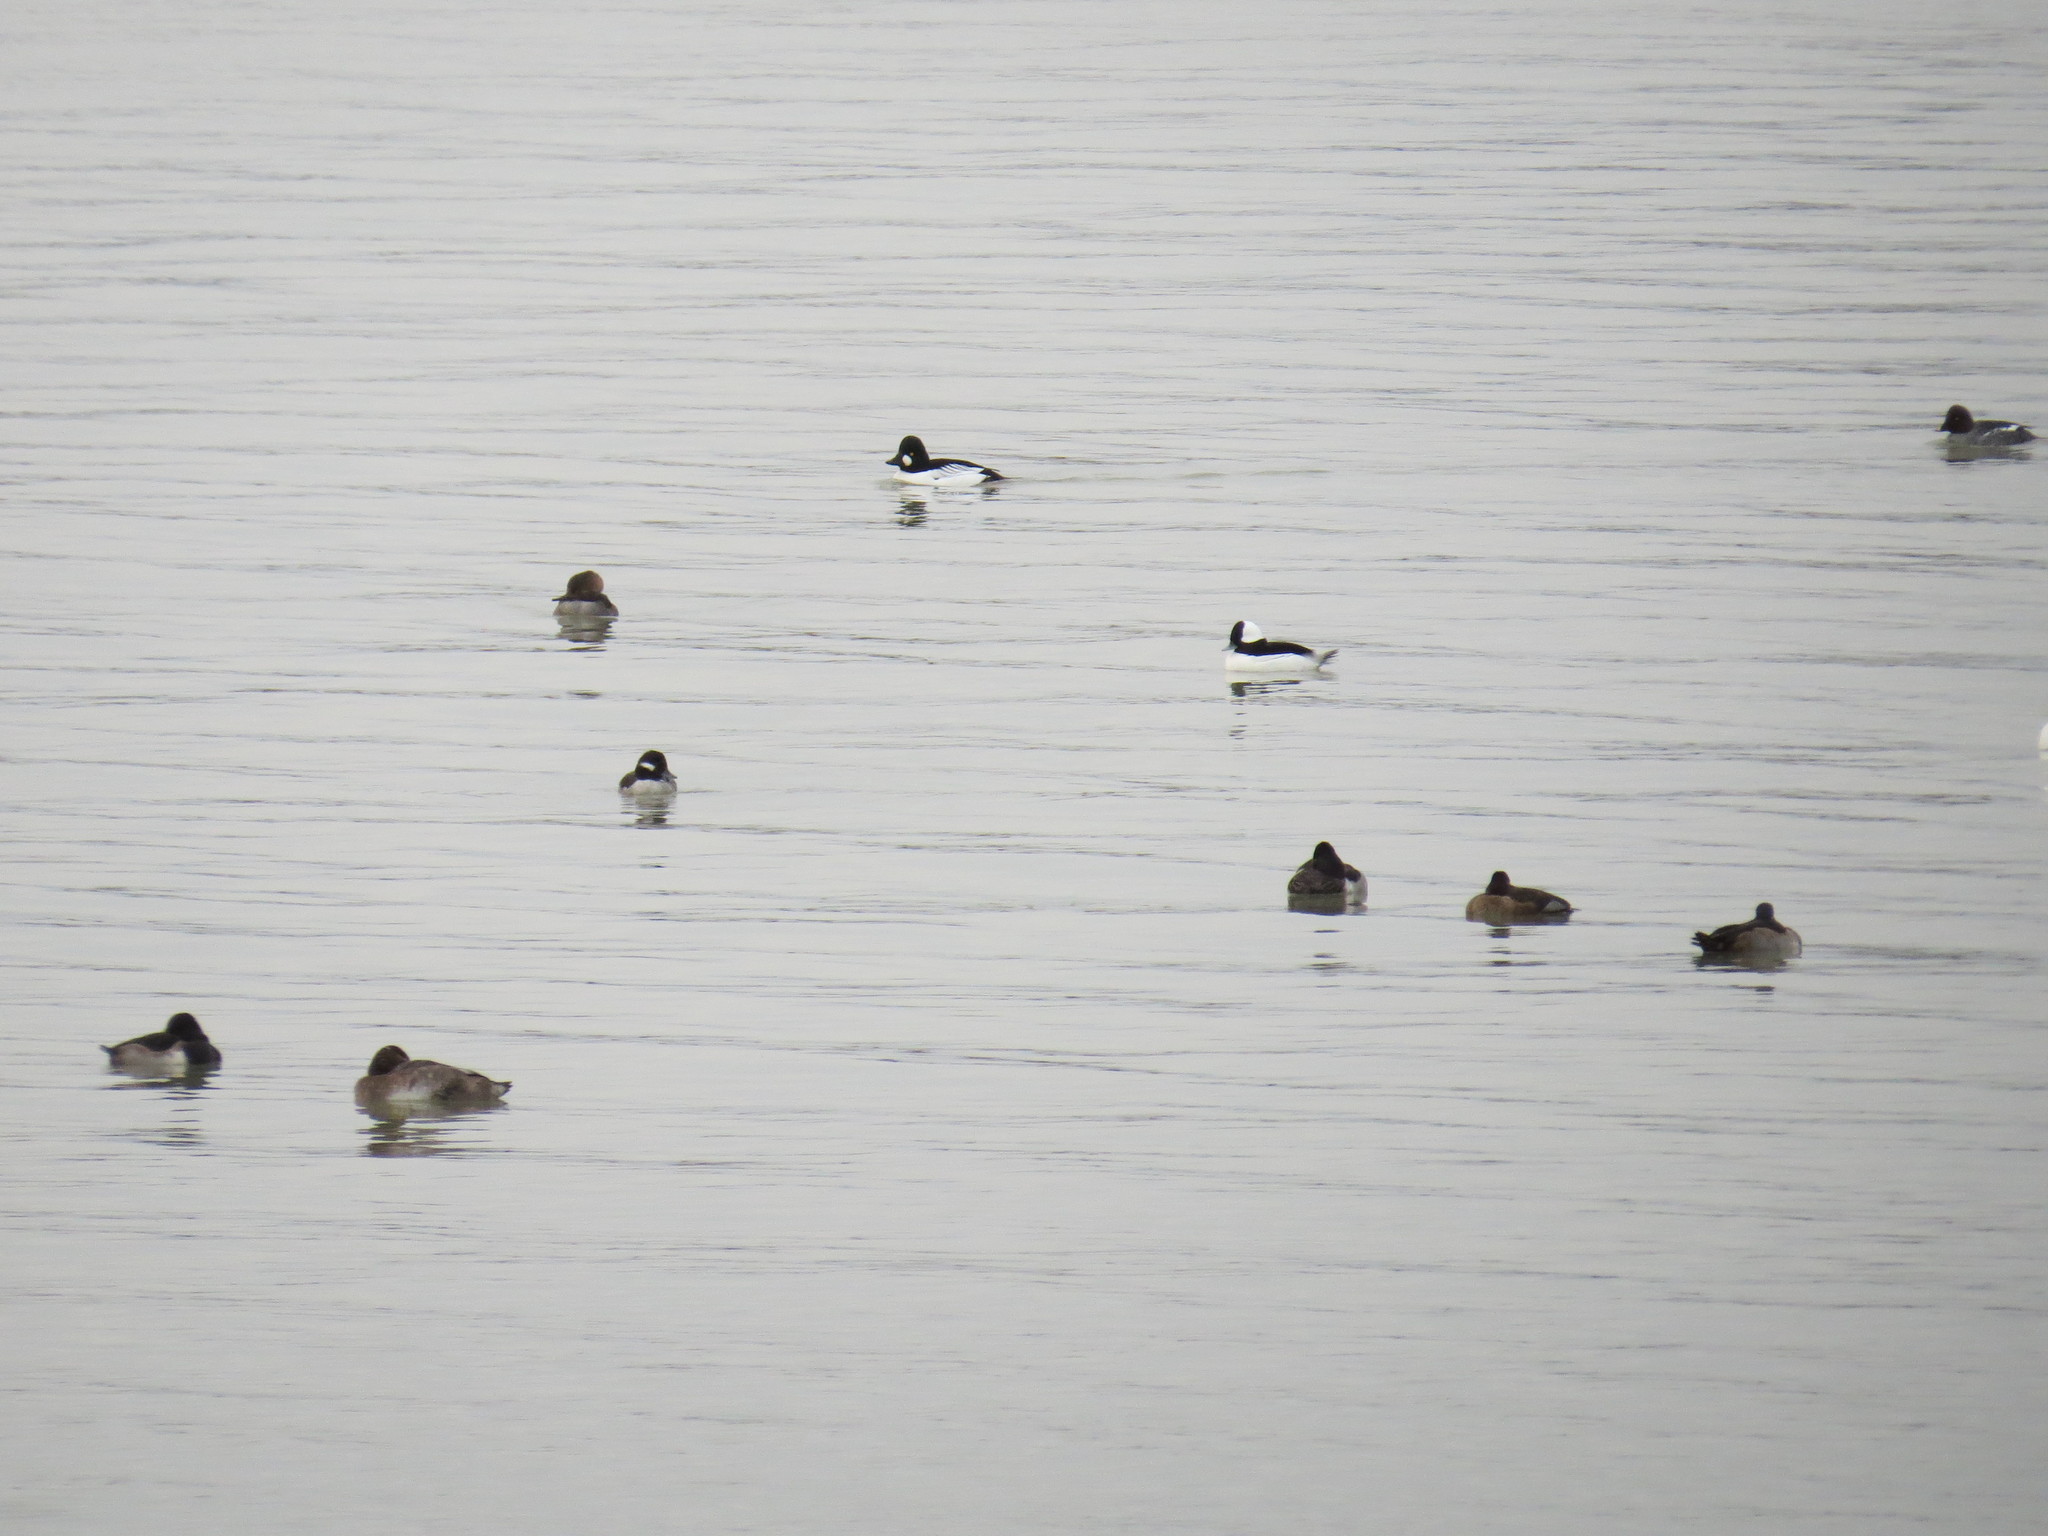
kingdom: Animalia
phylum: Chordata
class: Aves
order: Anseriformes
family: Anatidae
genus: Aythya
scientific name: Aythya collaris
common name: Ring-necked duck
